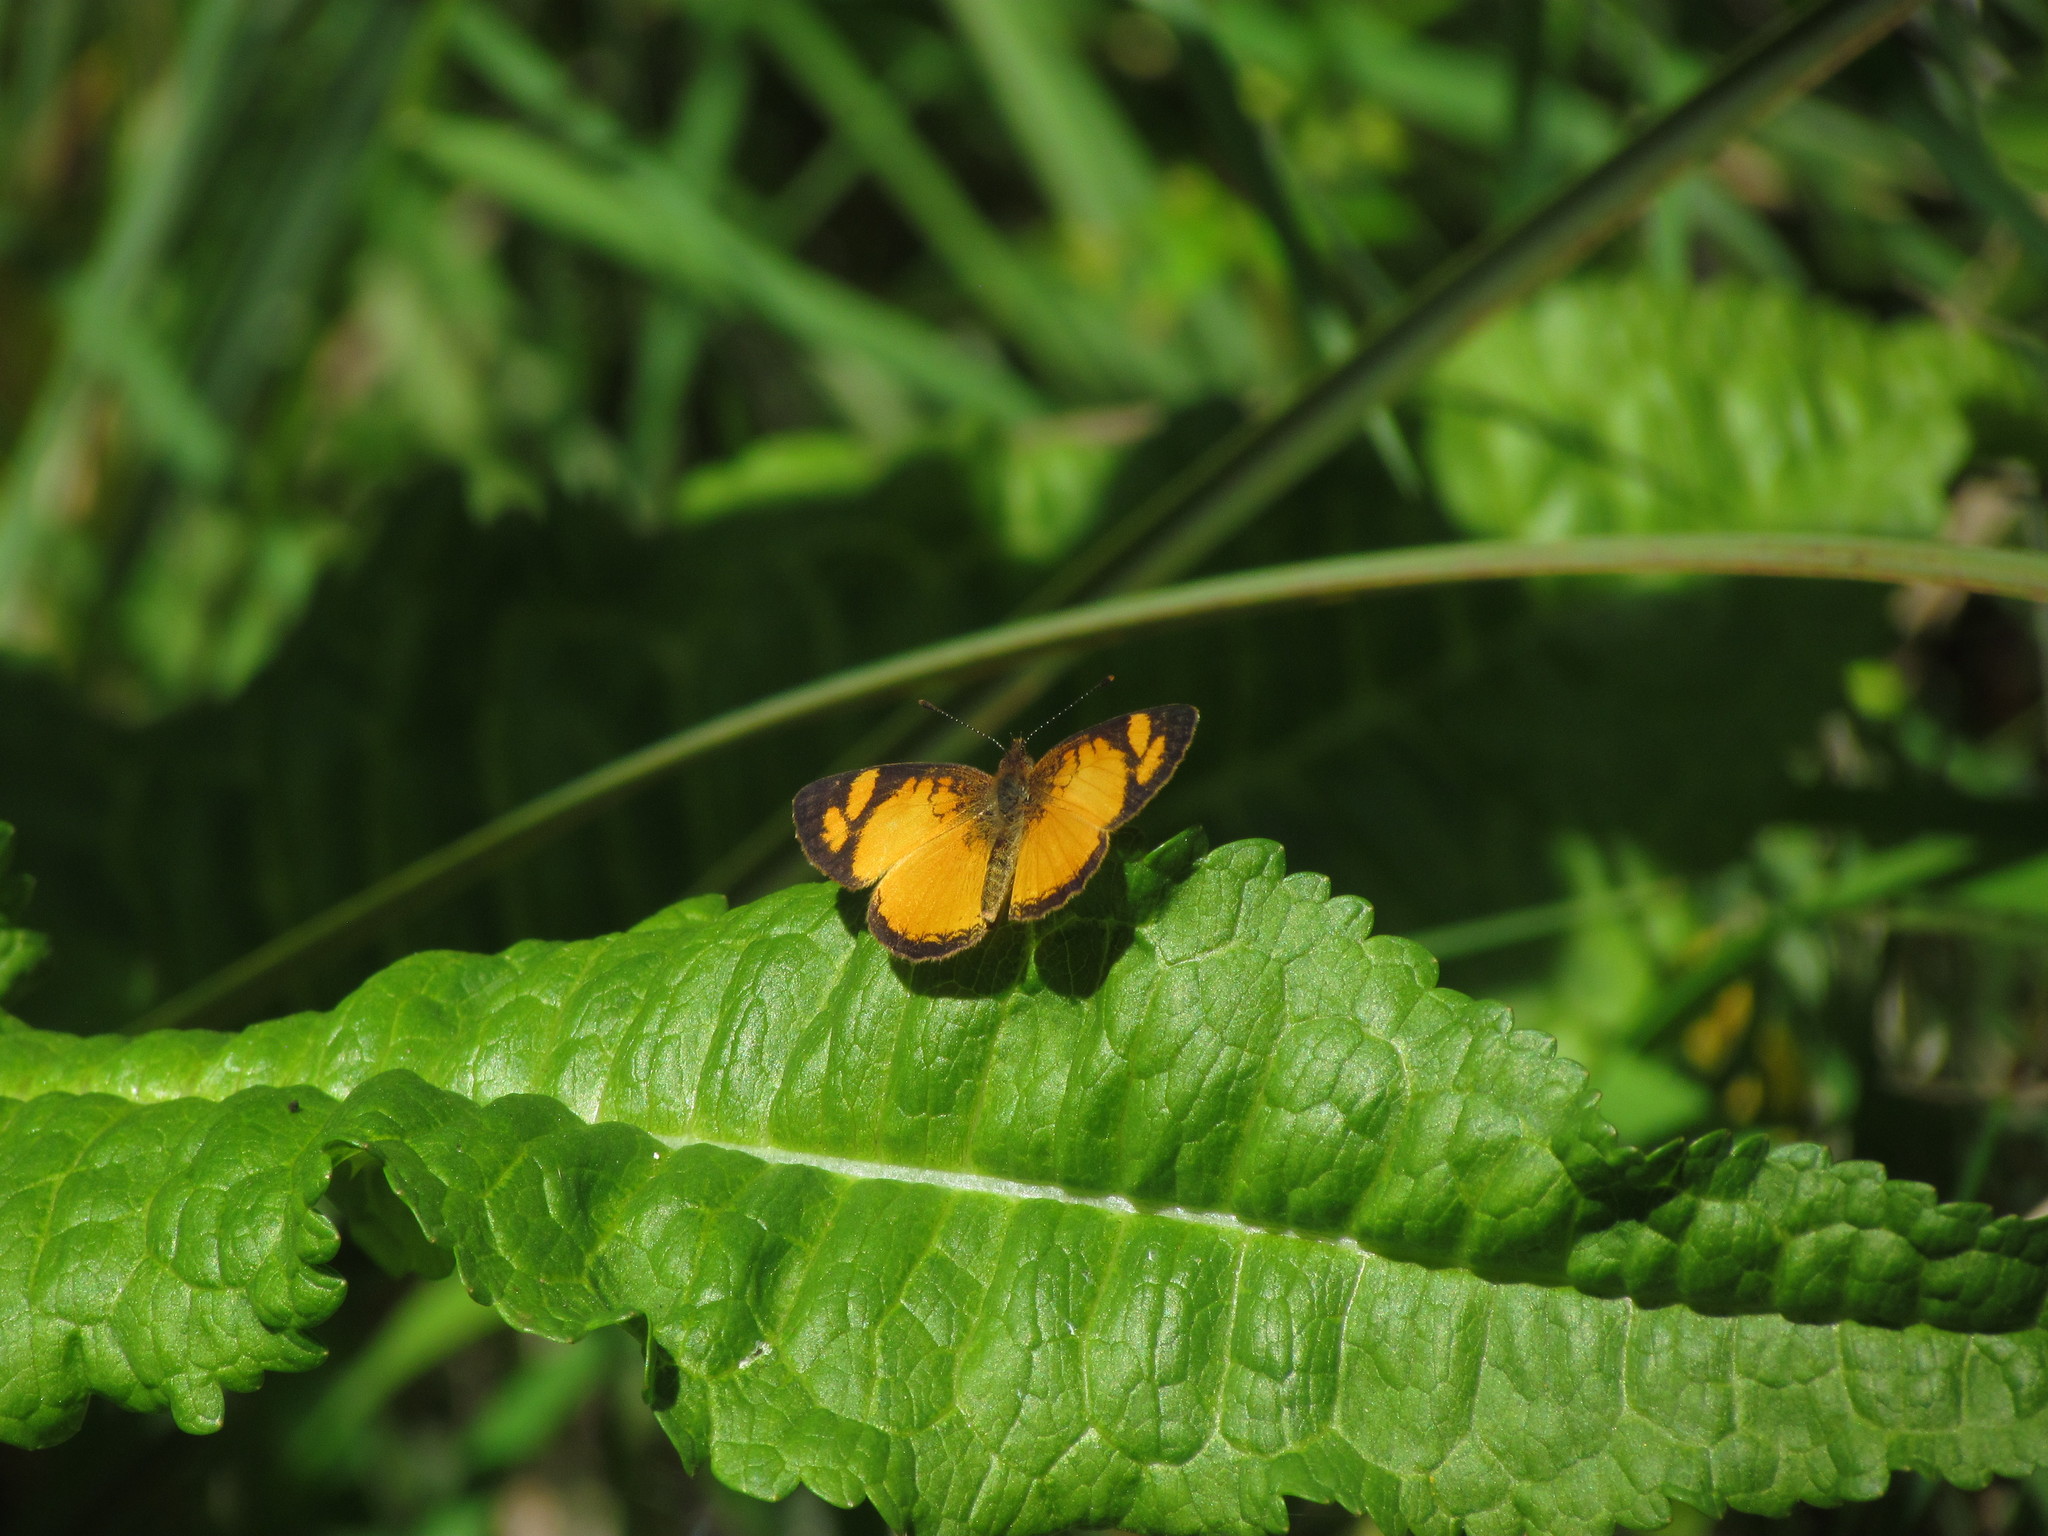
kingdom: Animalia
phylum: Arthropoda
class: Insecta
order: Lepidoptera
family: Nymphalidae
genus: Tegosa
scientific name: Tegosa claudina
